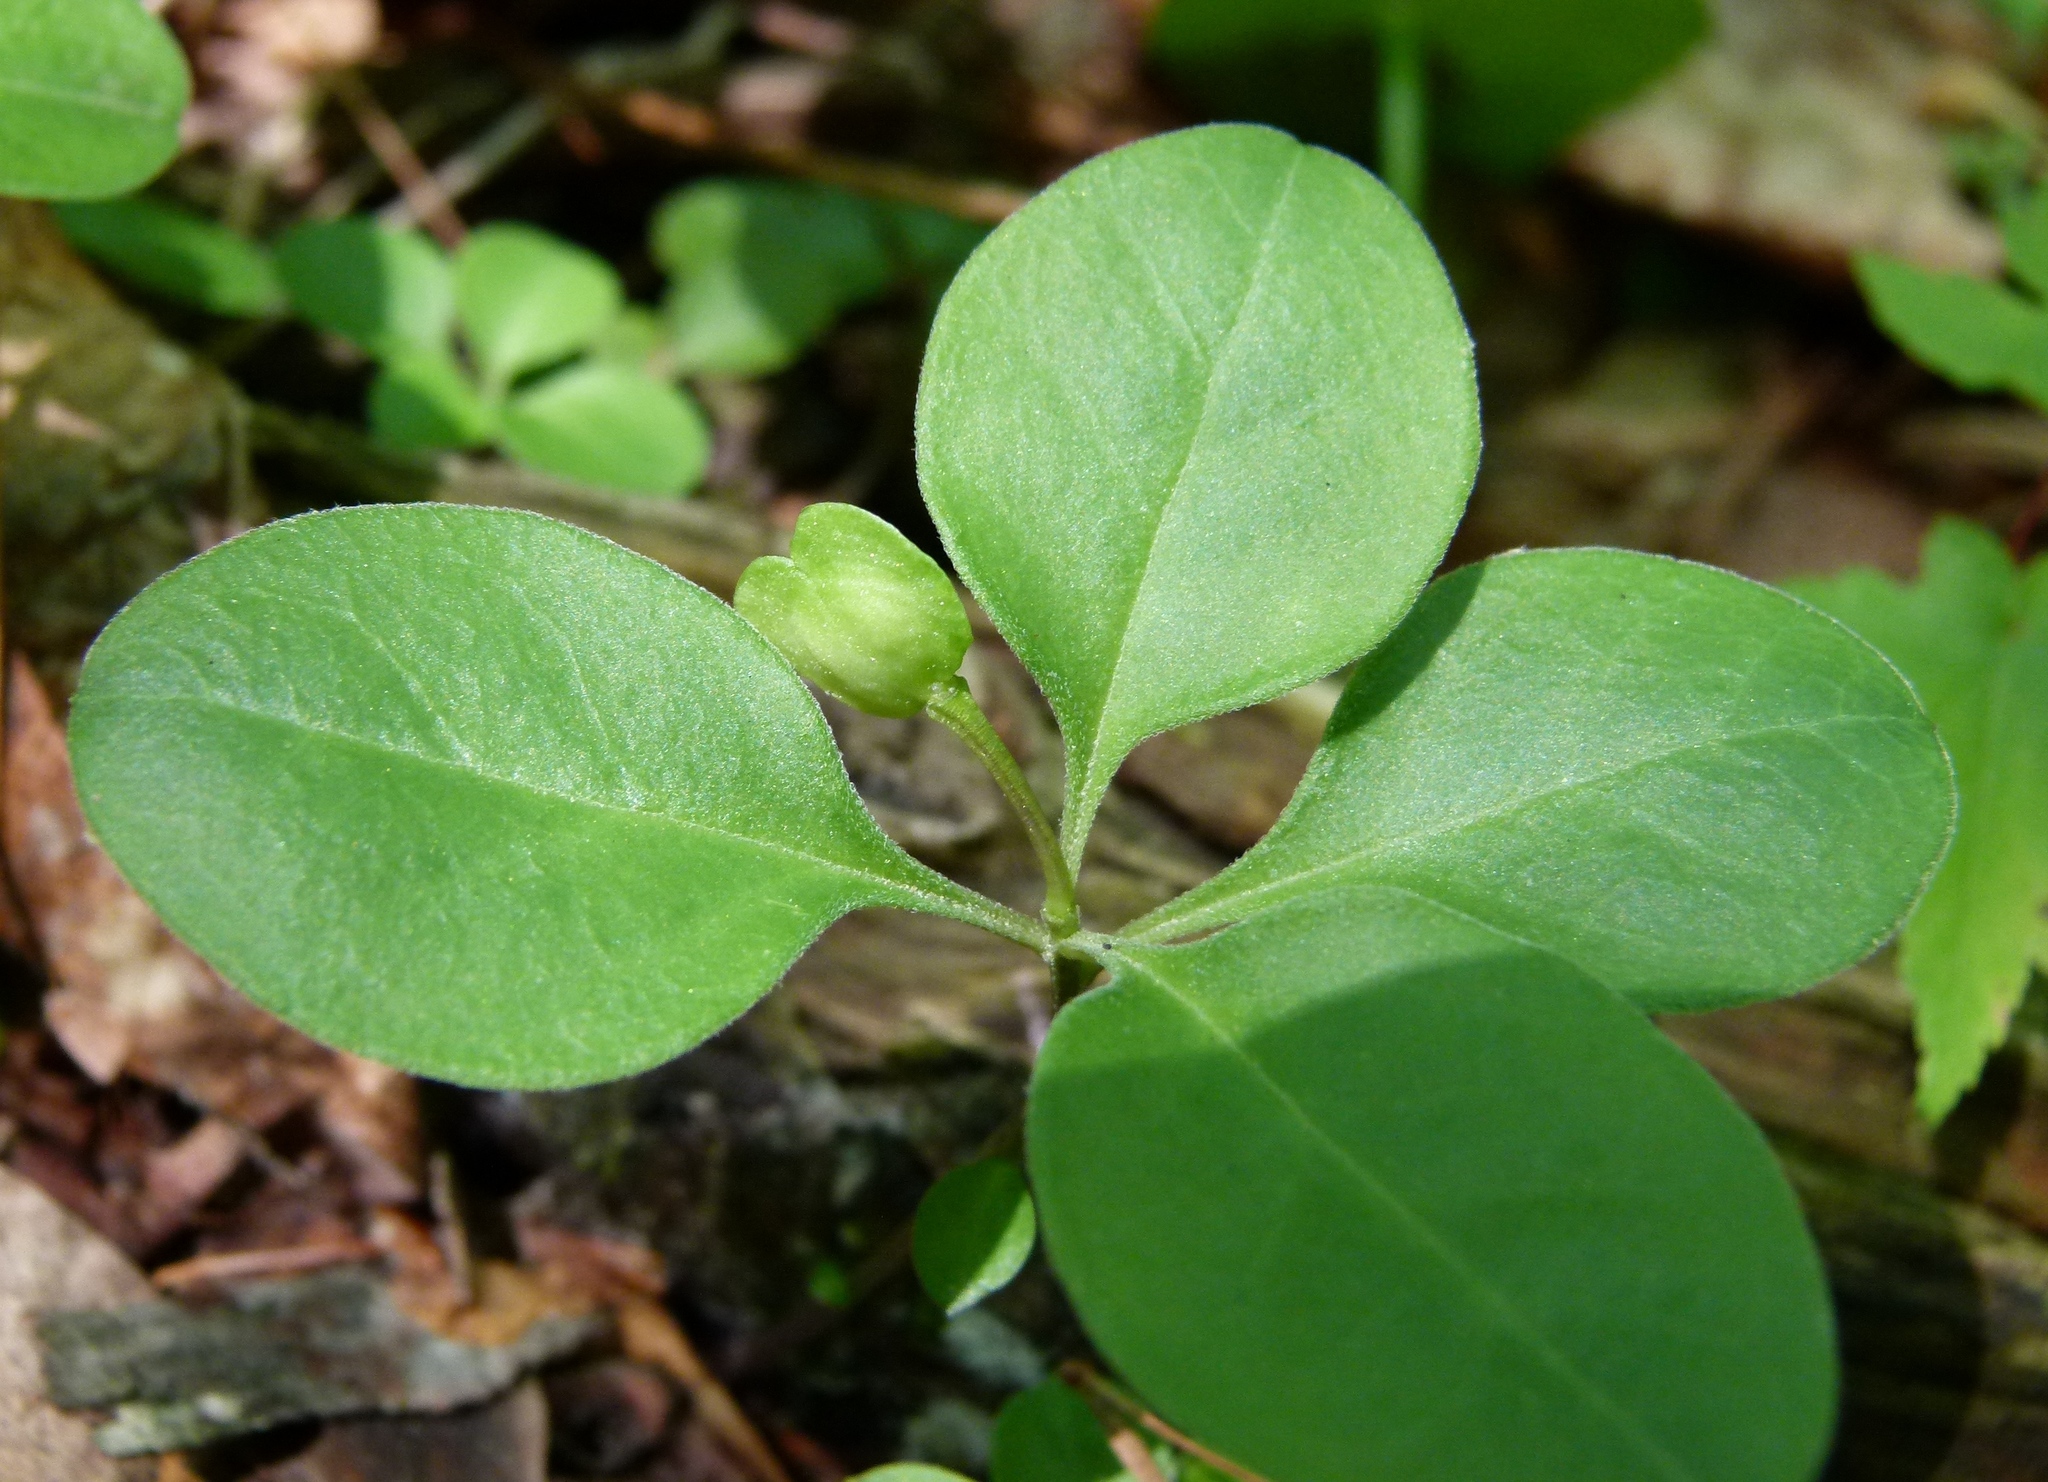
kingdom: Plantae
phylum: Tracheophyta
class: Magnoliopsida
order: Fabales
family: Polygalaceae
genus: Polygaloides
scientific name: Polygaloides paucifolia
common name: Bird-on-the-wing
